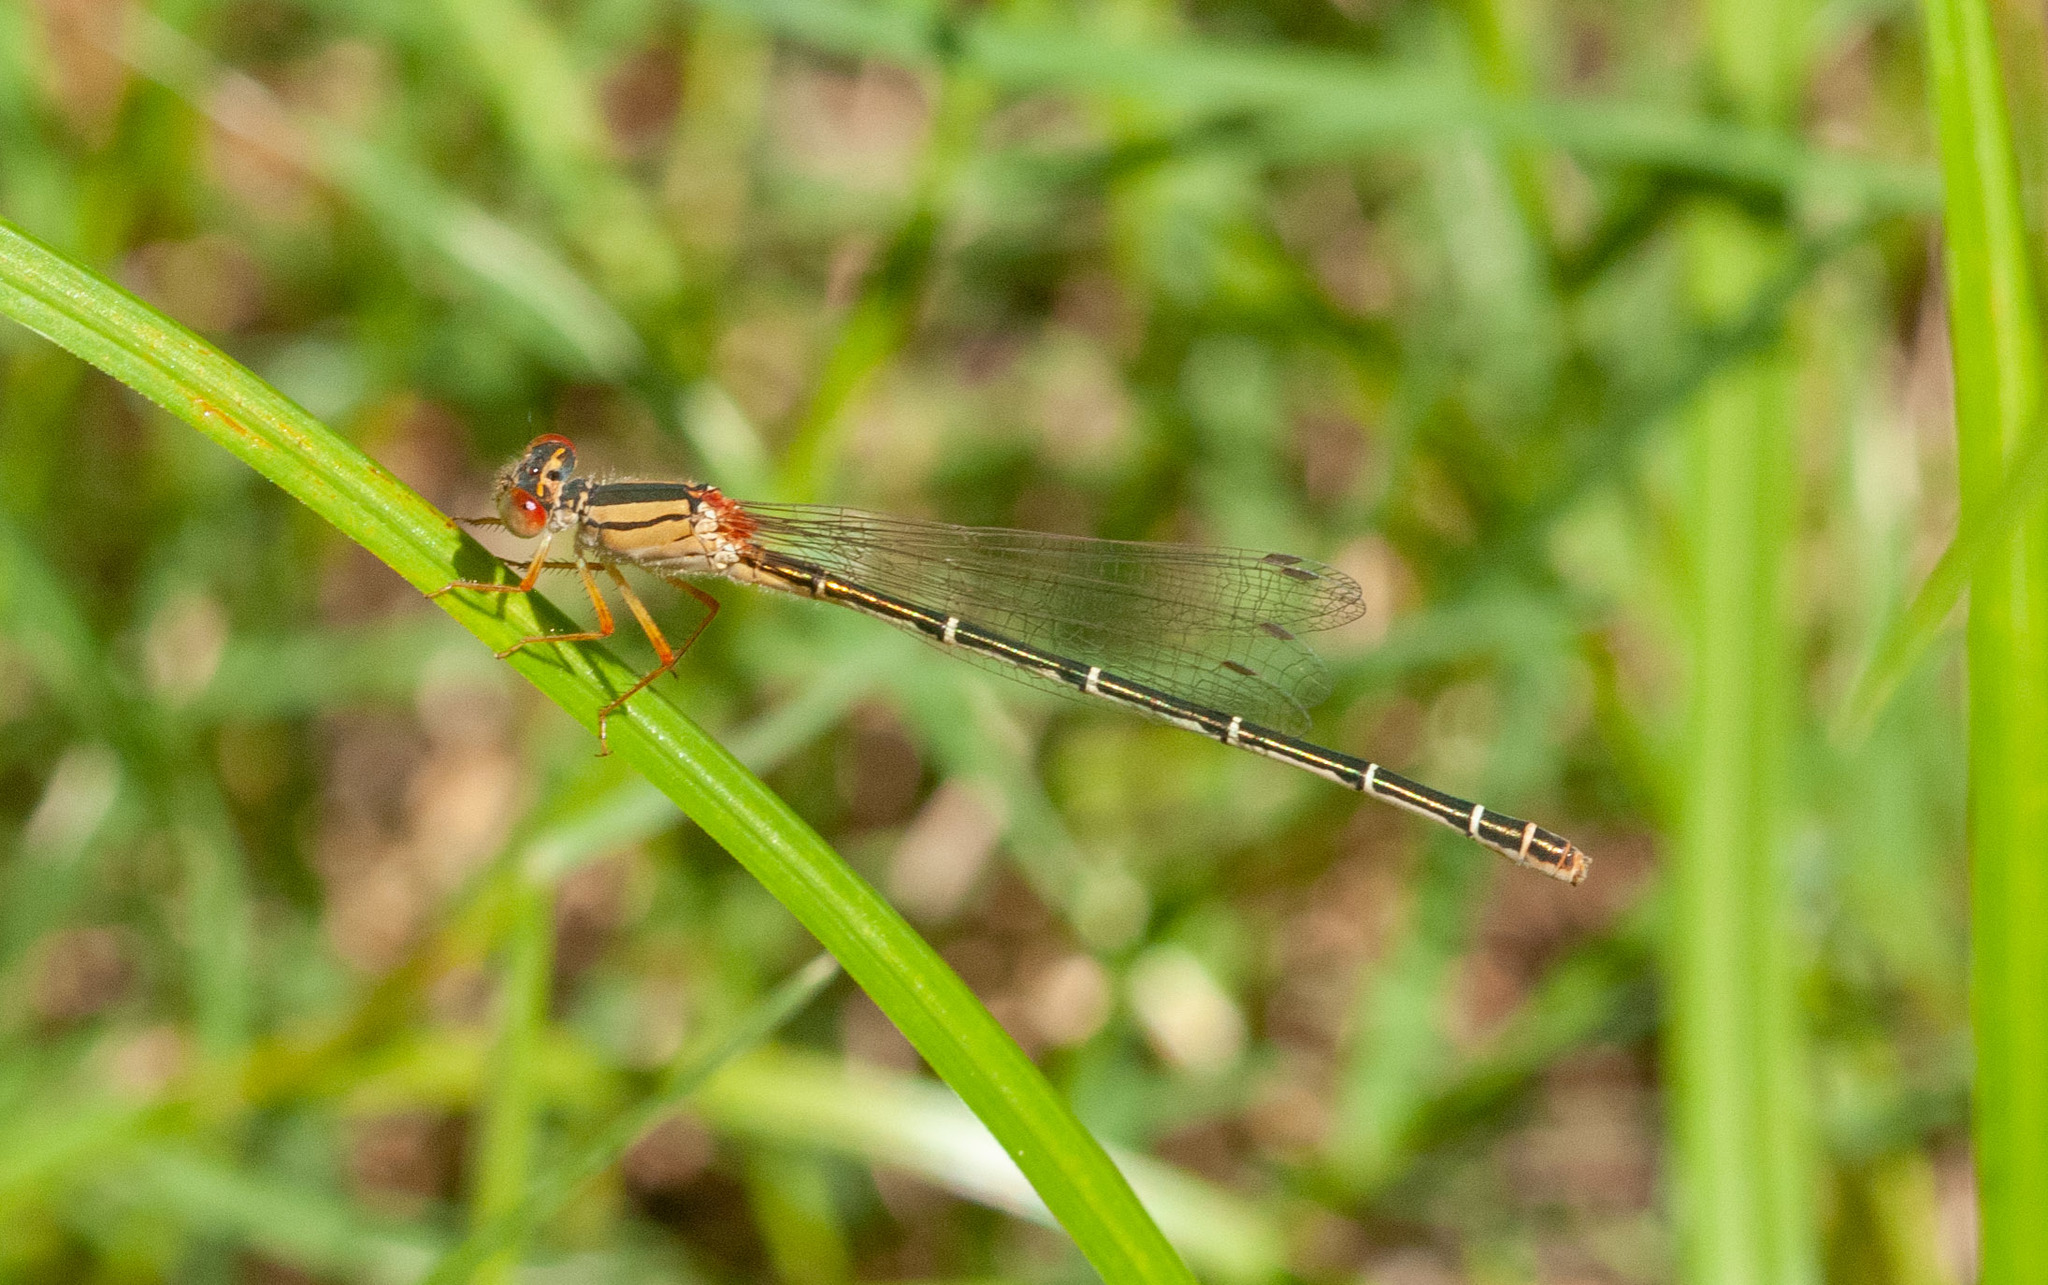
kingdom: Animalia
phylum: Arthropoda
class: Insecta
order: Odonata
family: Coenagrionidae
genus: Xanthagrion
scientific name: Xanthagrion erythroneurum
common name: Red and blue damsel
